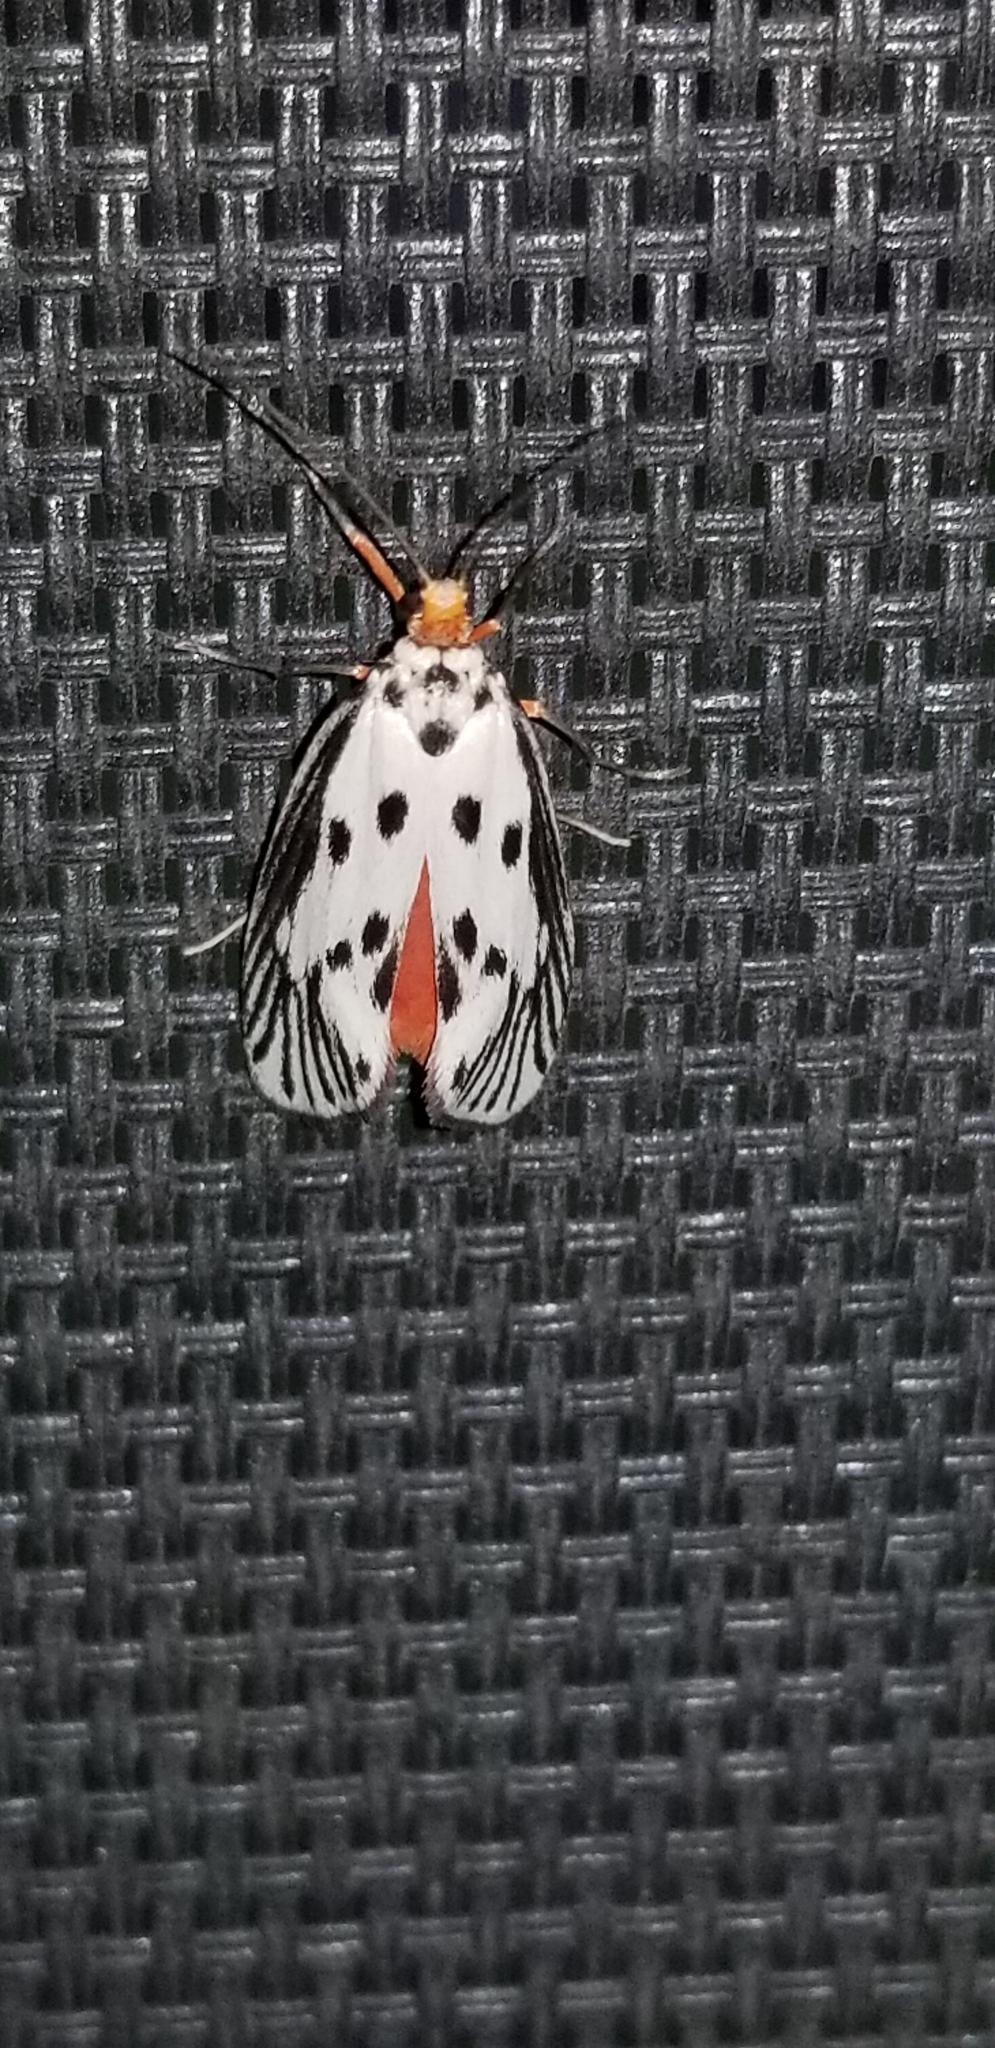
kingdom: Animalia
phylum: Arthropoda
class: Insecta
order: Lepidoptera
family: Lacturidae
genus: Lactura
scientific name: Lactura
